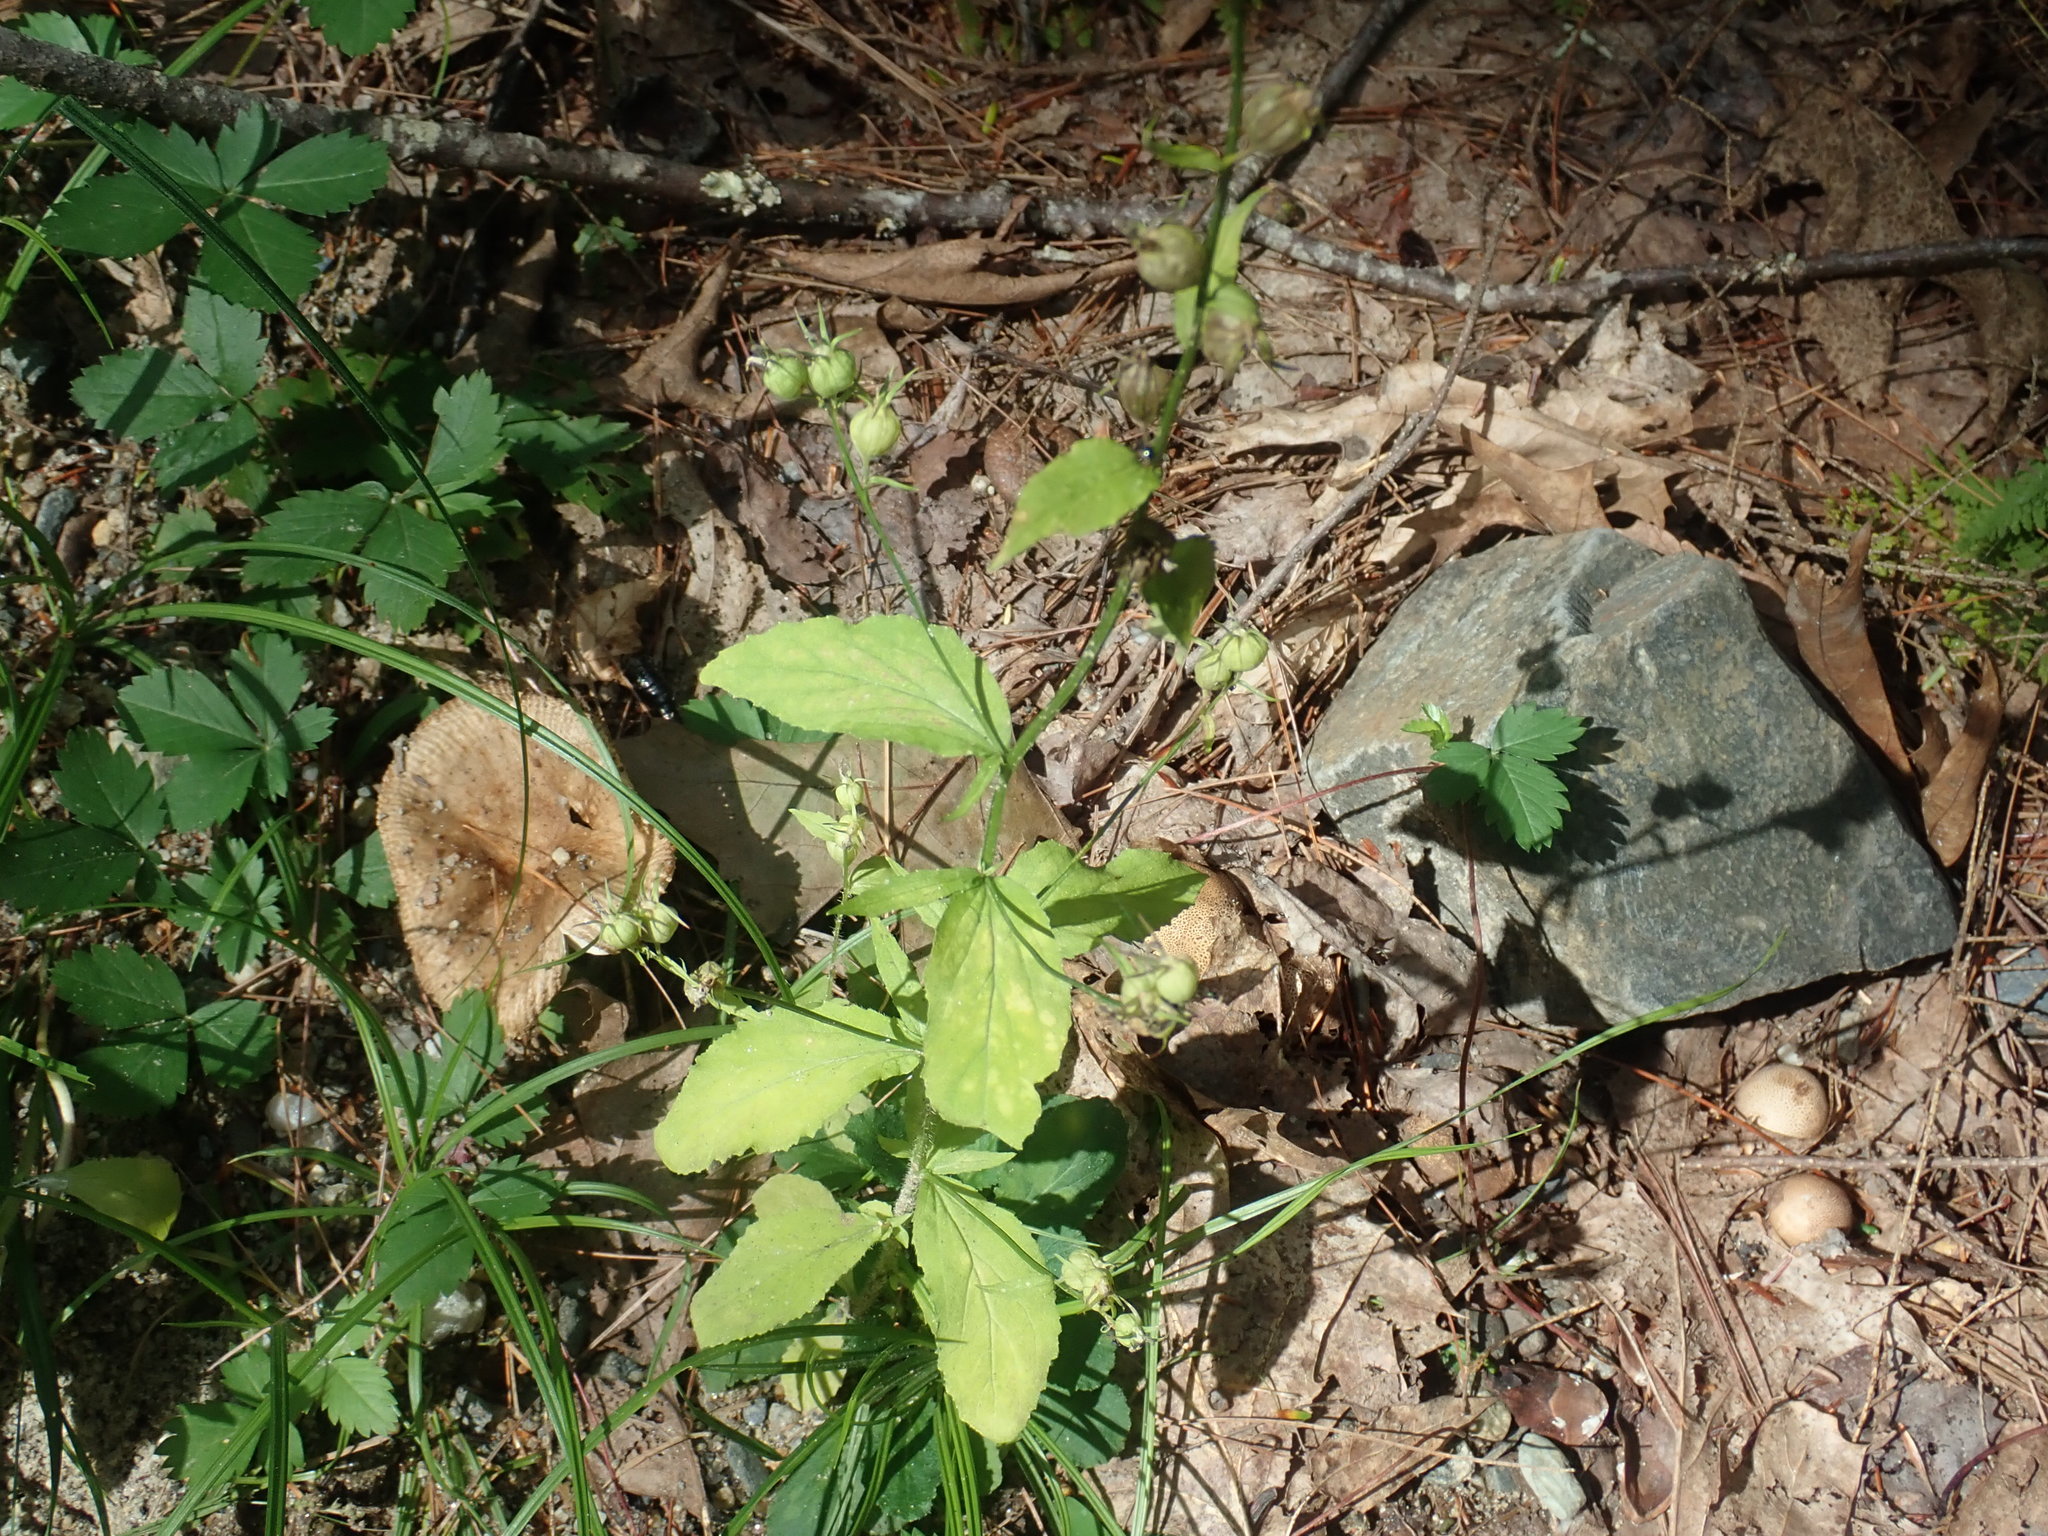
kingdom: Plantae
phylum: Tracheophyta
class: Magnoliopsida
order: Asterales
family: Campanulaceae
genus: Lobelia
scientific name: Lobelia inflata
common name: Indian tobacco
